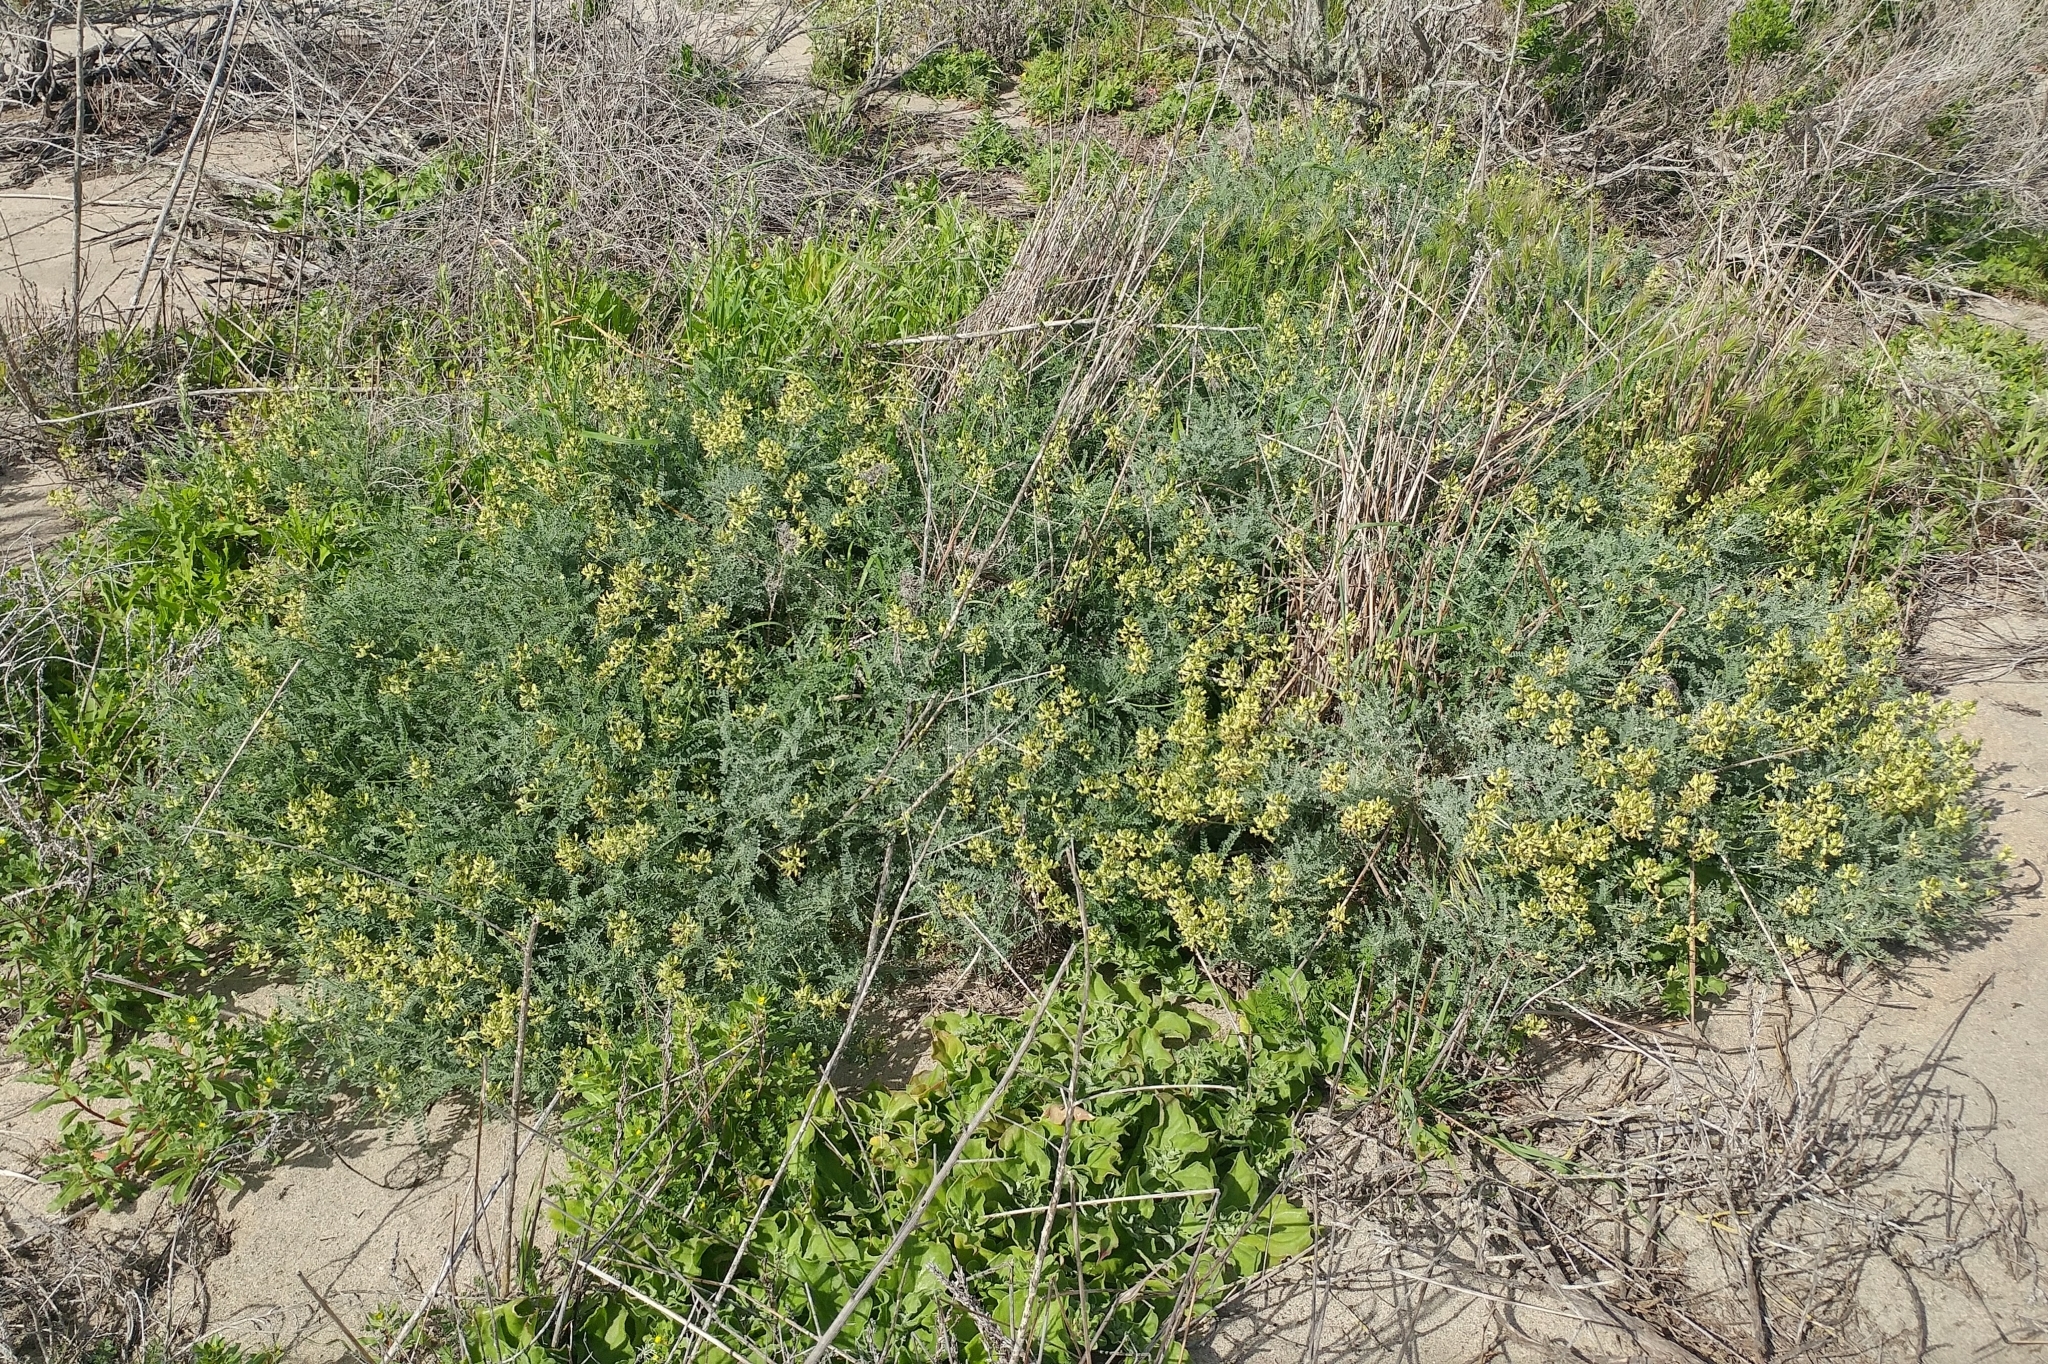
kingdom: Plantae
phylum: Tracheophyta
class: Magnoliopsida
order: Fabales
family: Fabaceae
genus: Astragalus
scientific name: Astragalus nevinii
